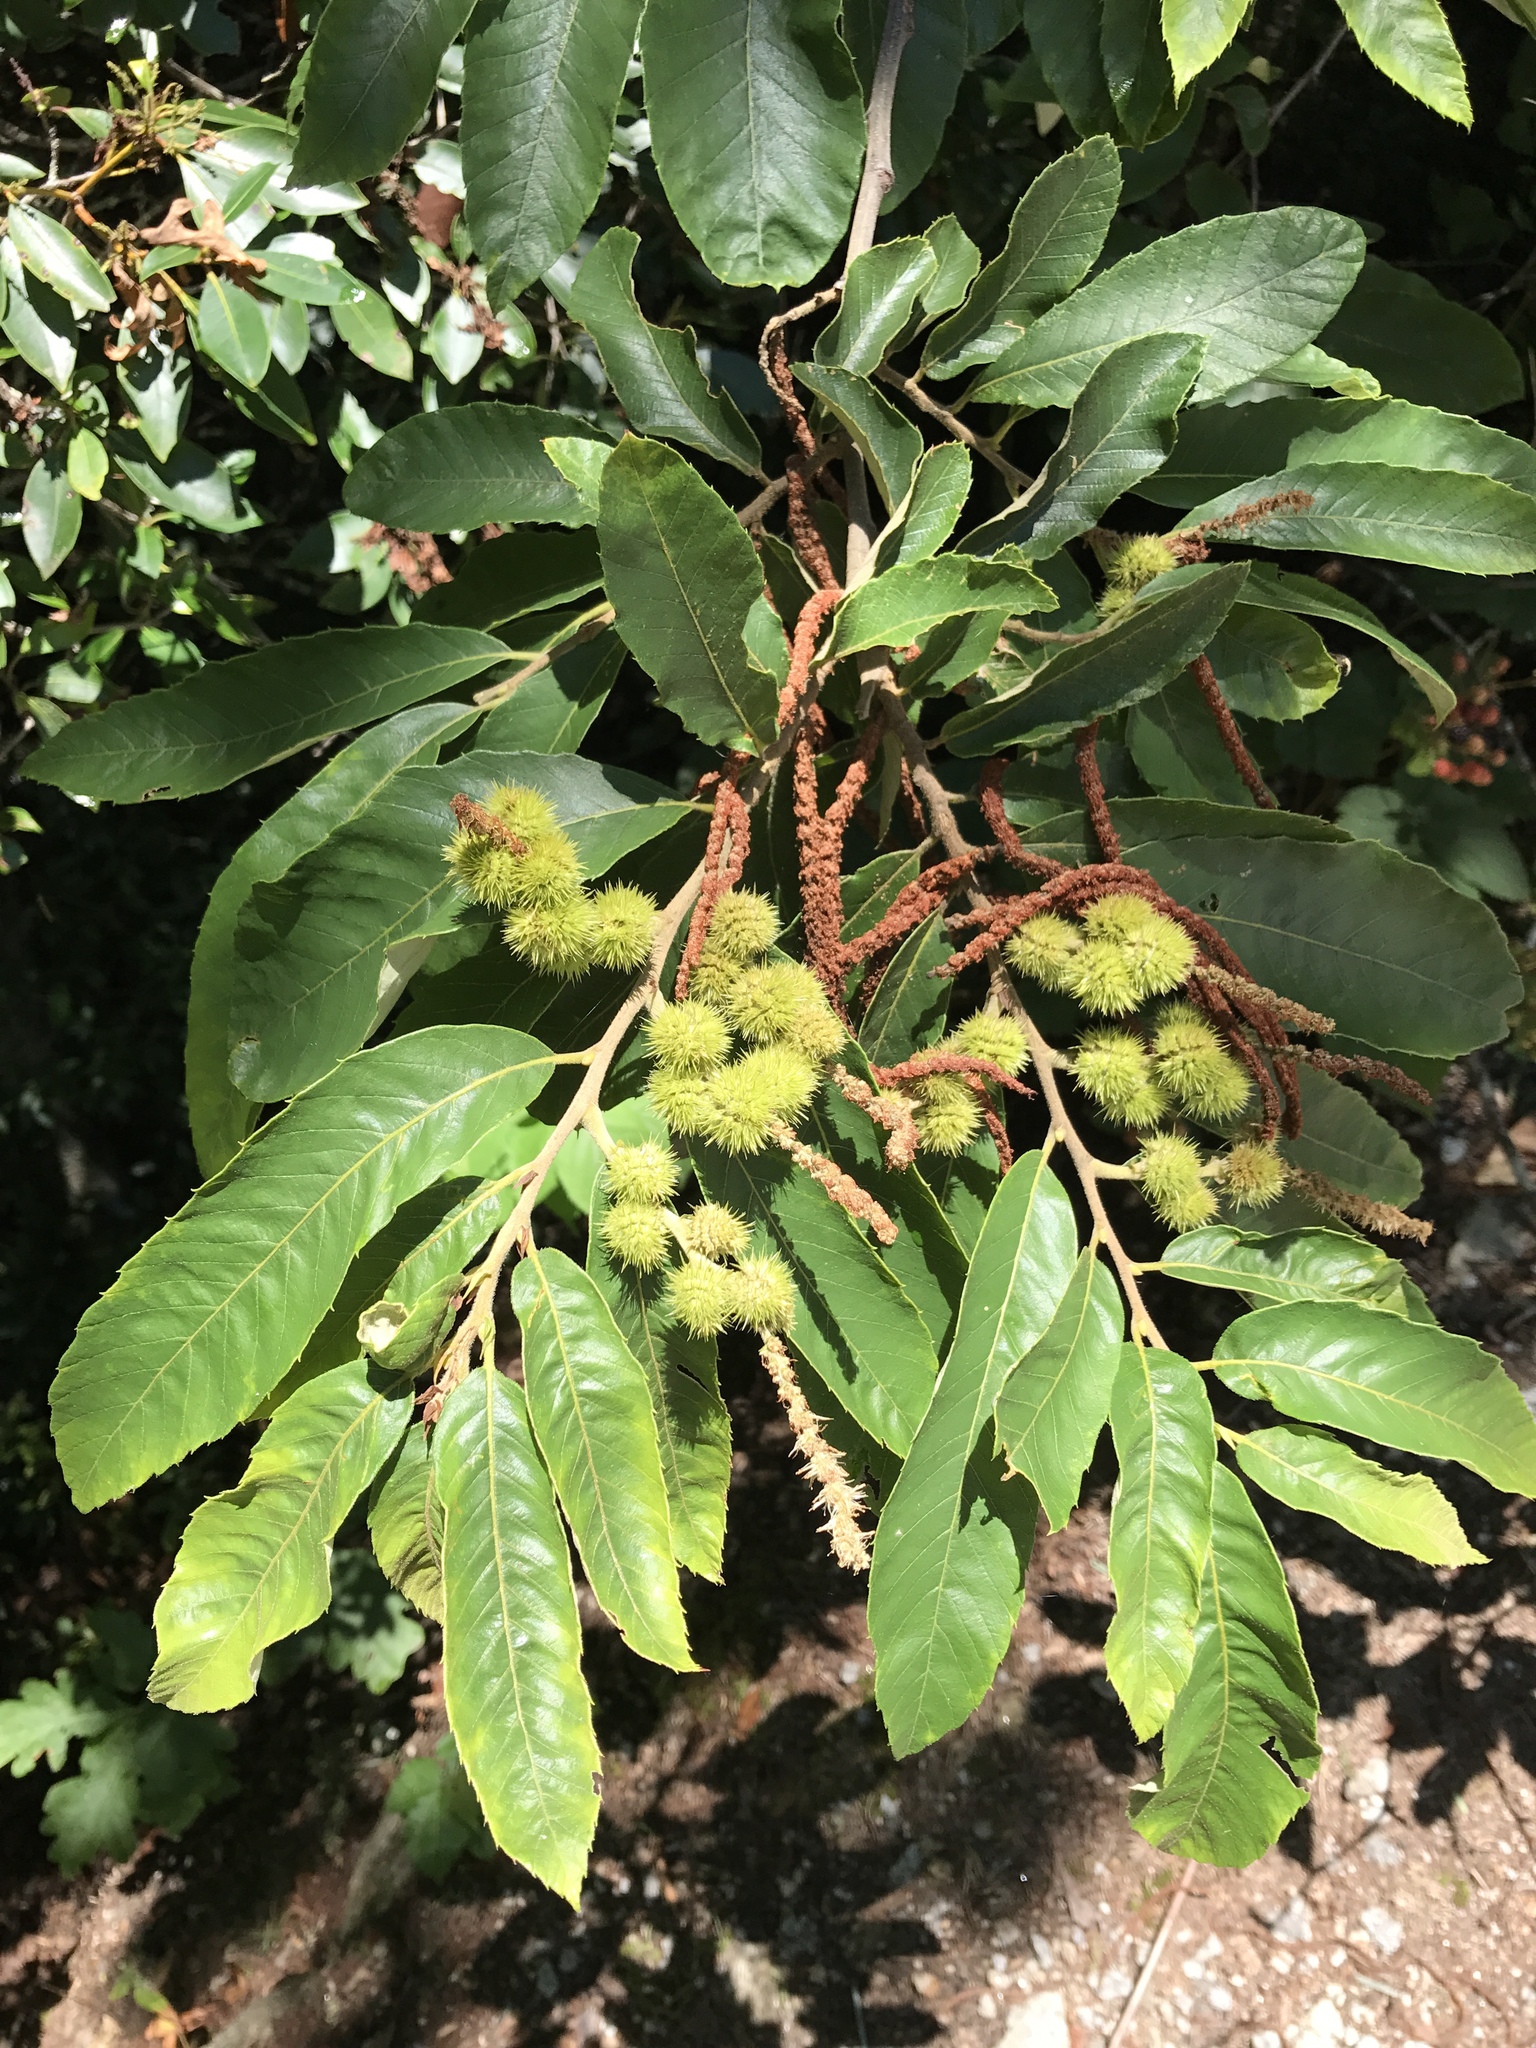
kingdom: Plantae
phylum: Tracheophyta
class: Magnoliopsida
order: Fagales
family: Fagaceae
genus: Castanea
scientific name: Castanea pumila
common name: Chinkapin
